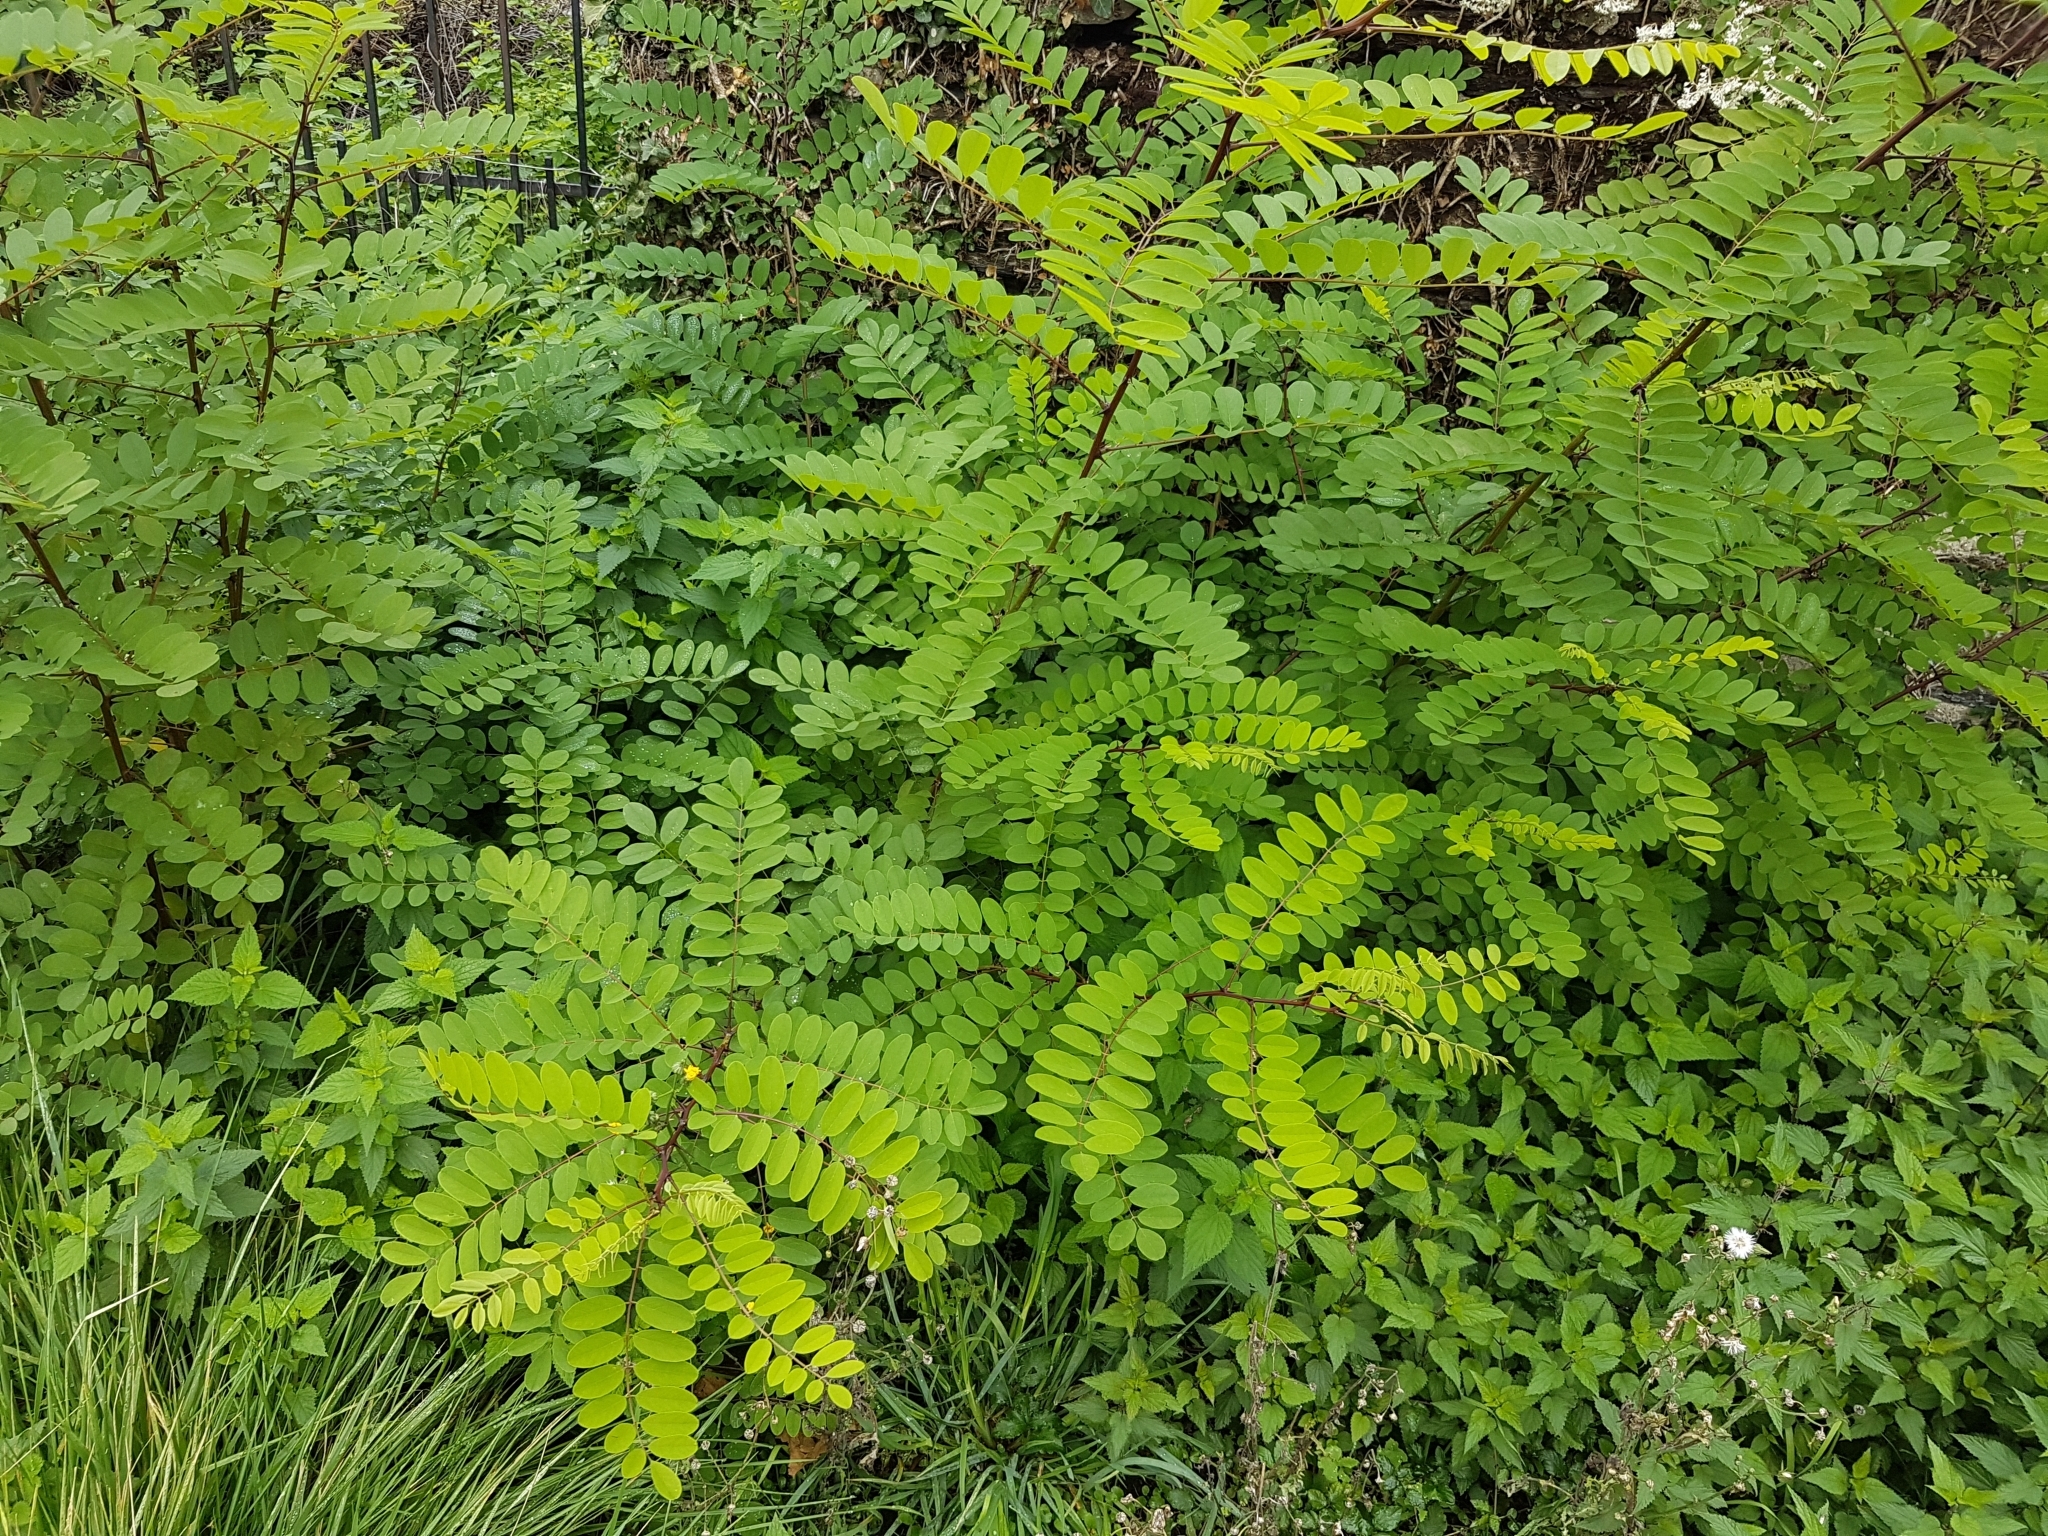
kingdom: Plantae
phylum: Tracheophyta
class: Magnoliopsida
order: Fabales
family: Fabaceae
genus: Robinia
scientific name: Robinia pseudoacacia
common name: Black locust
